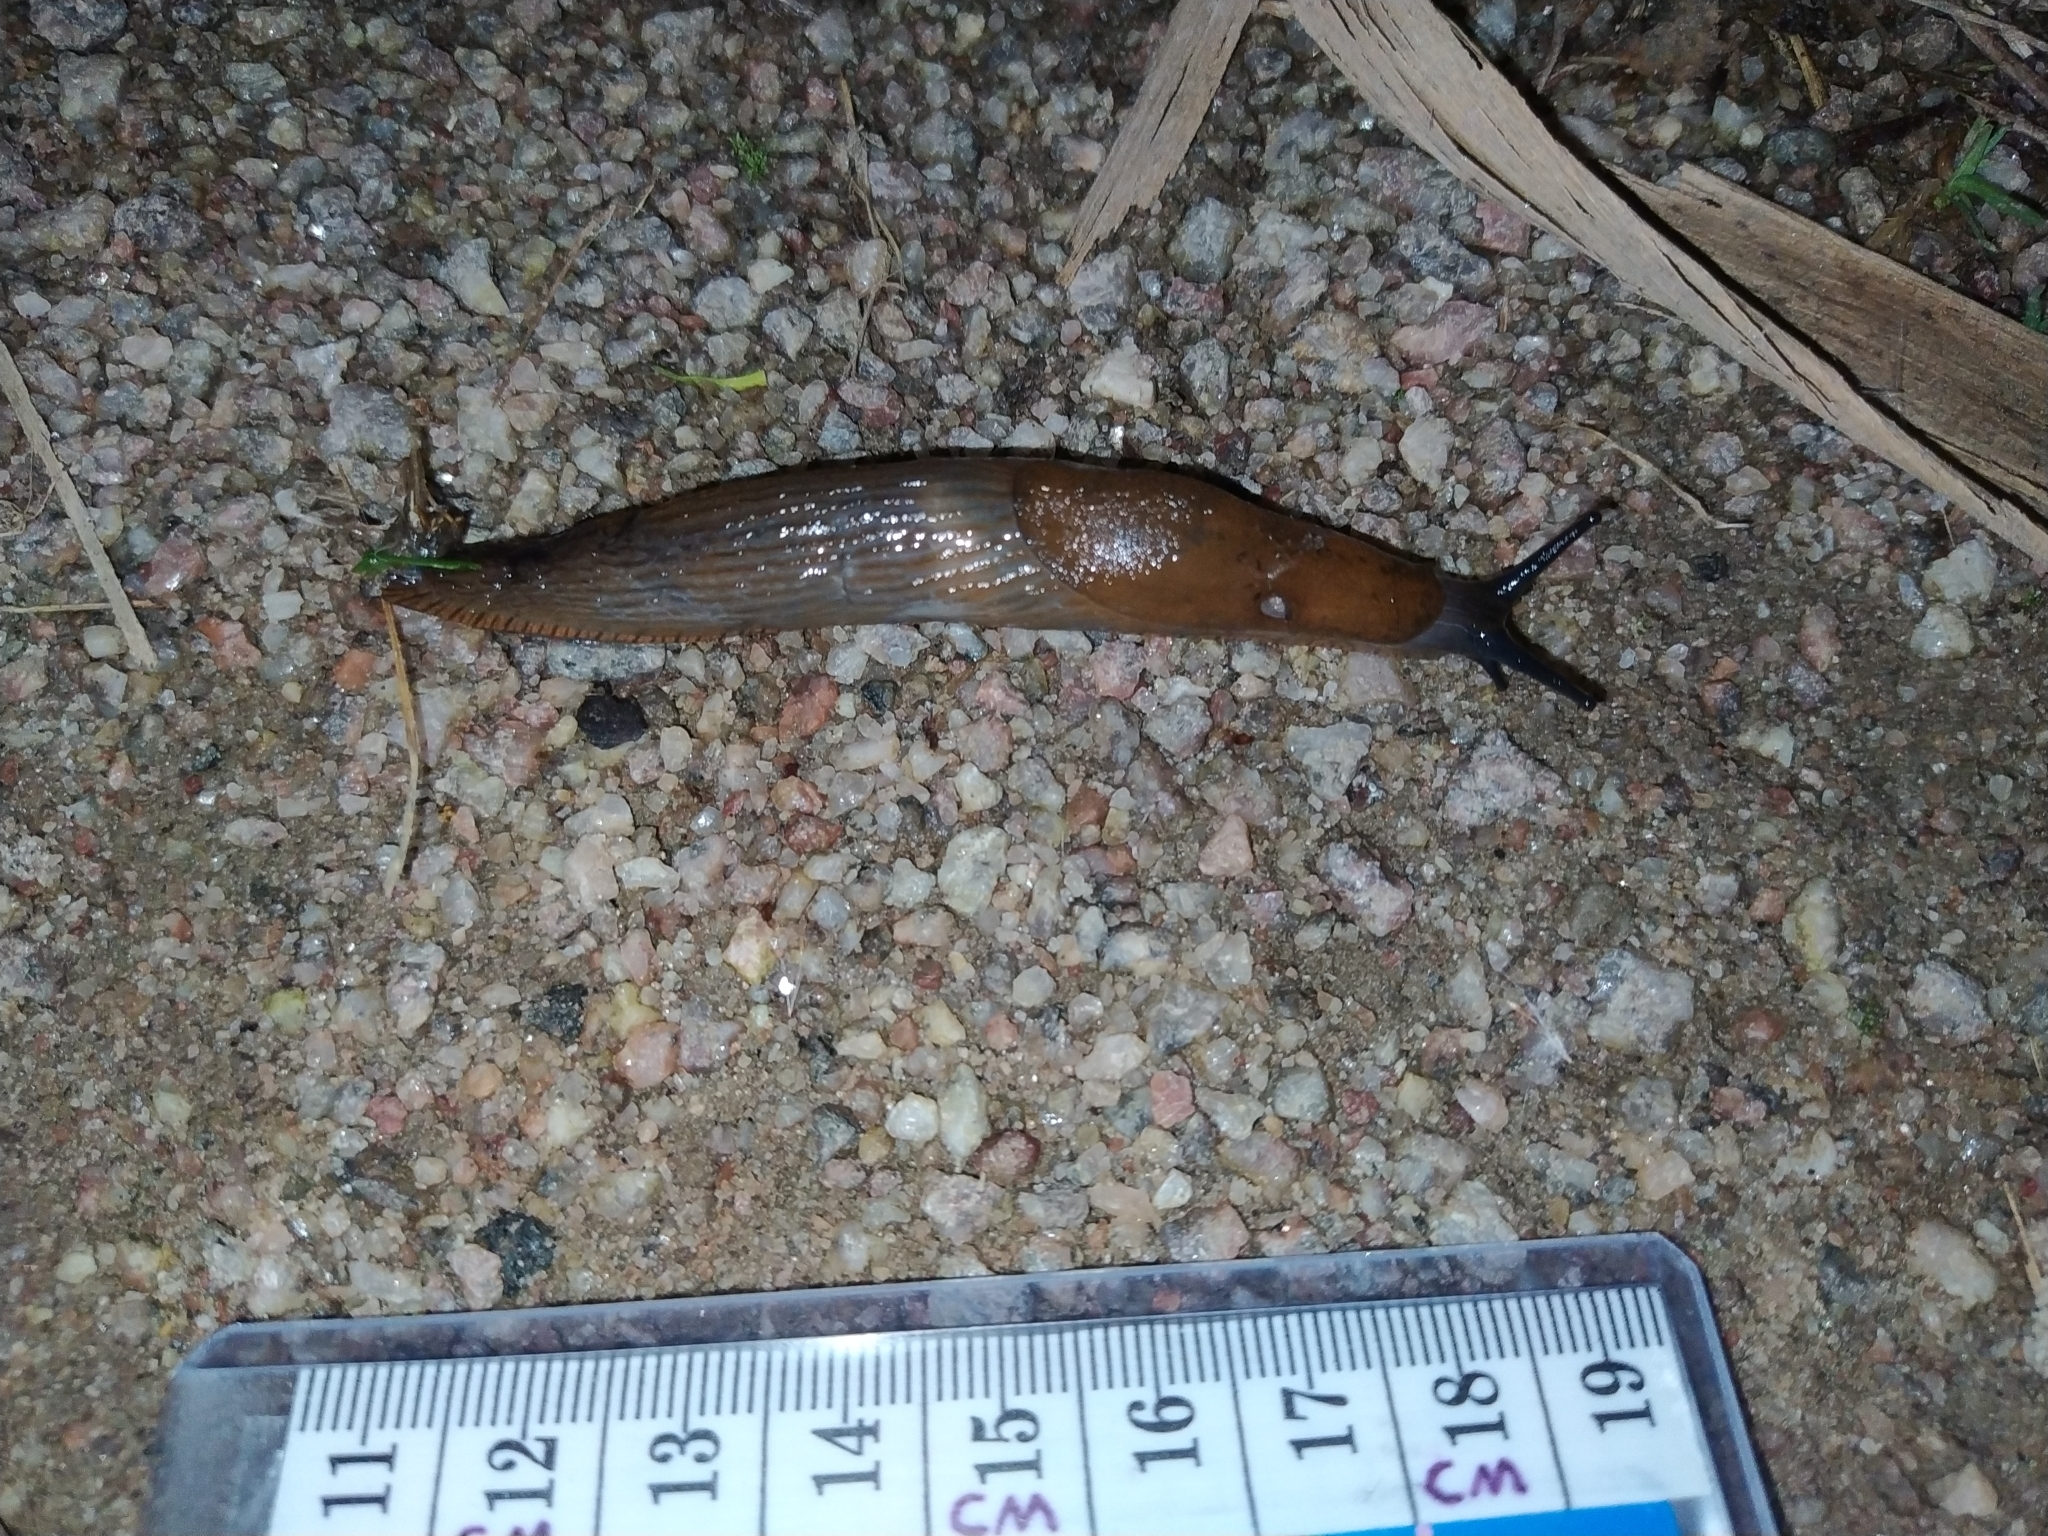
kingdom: Animalia
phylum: Mollusca
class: Gastropoda
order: Stylommatophora
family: Arionidae
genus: Arion
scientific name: Arion vulgaris
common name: Lusitanian slug
